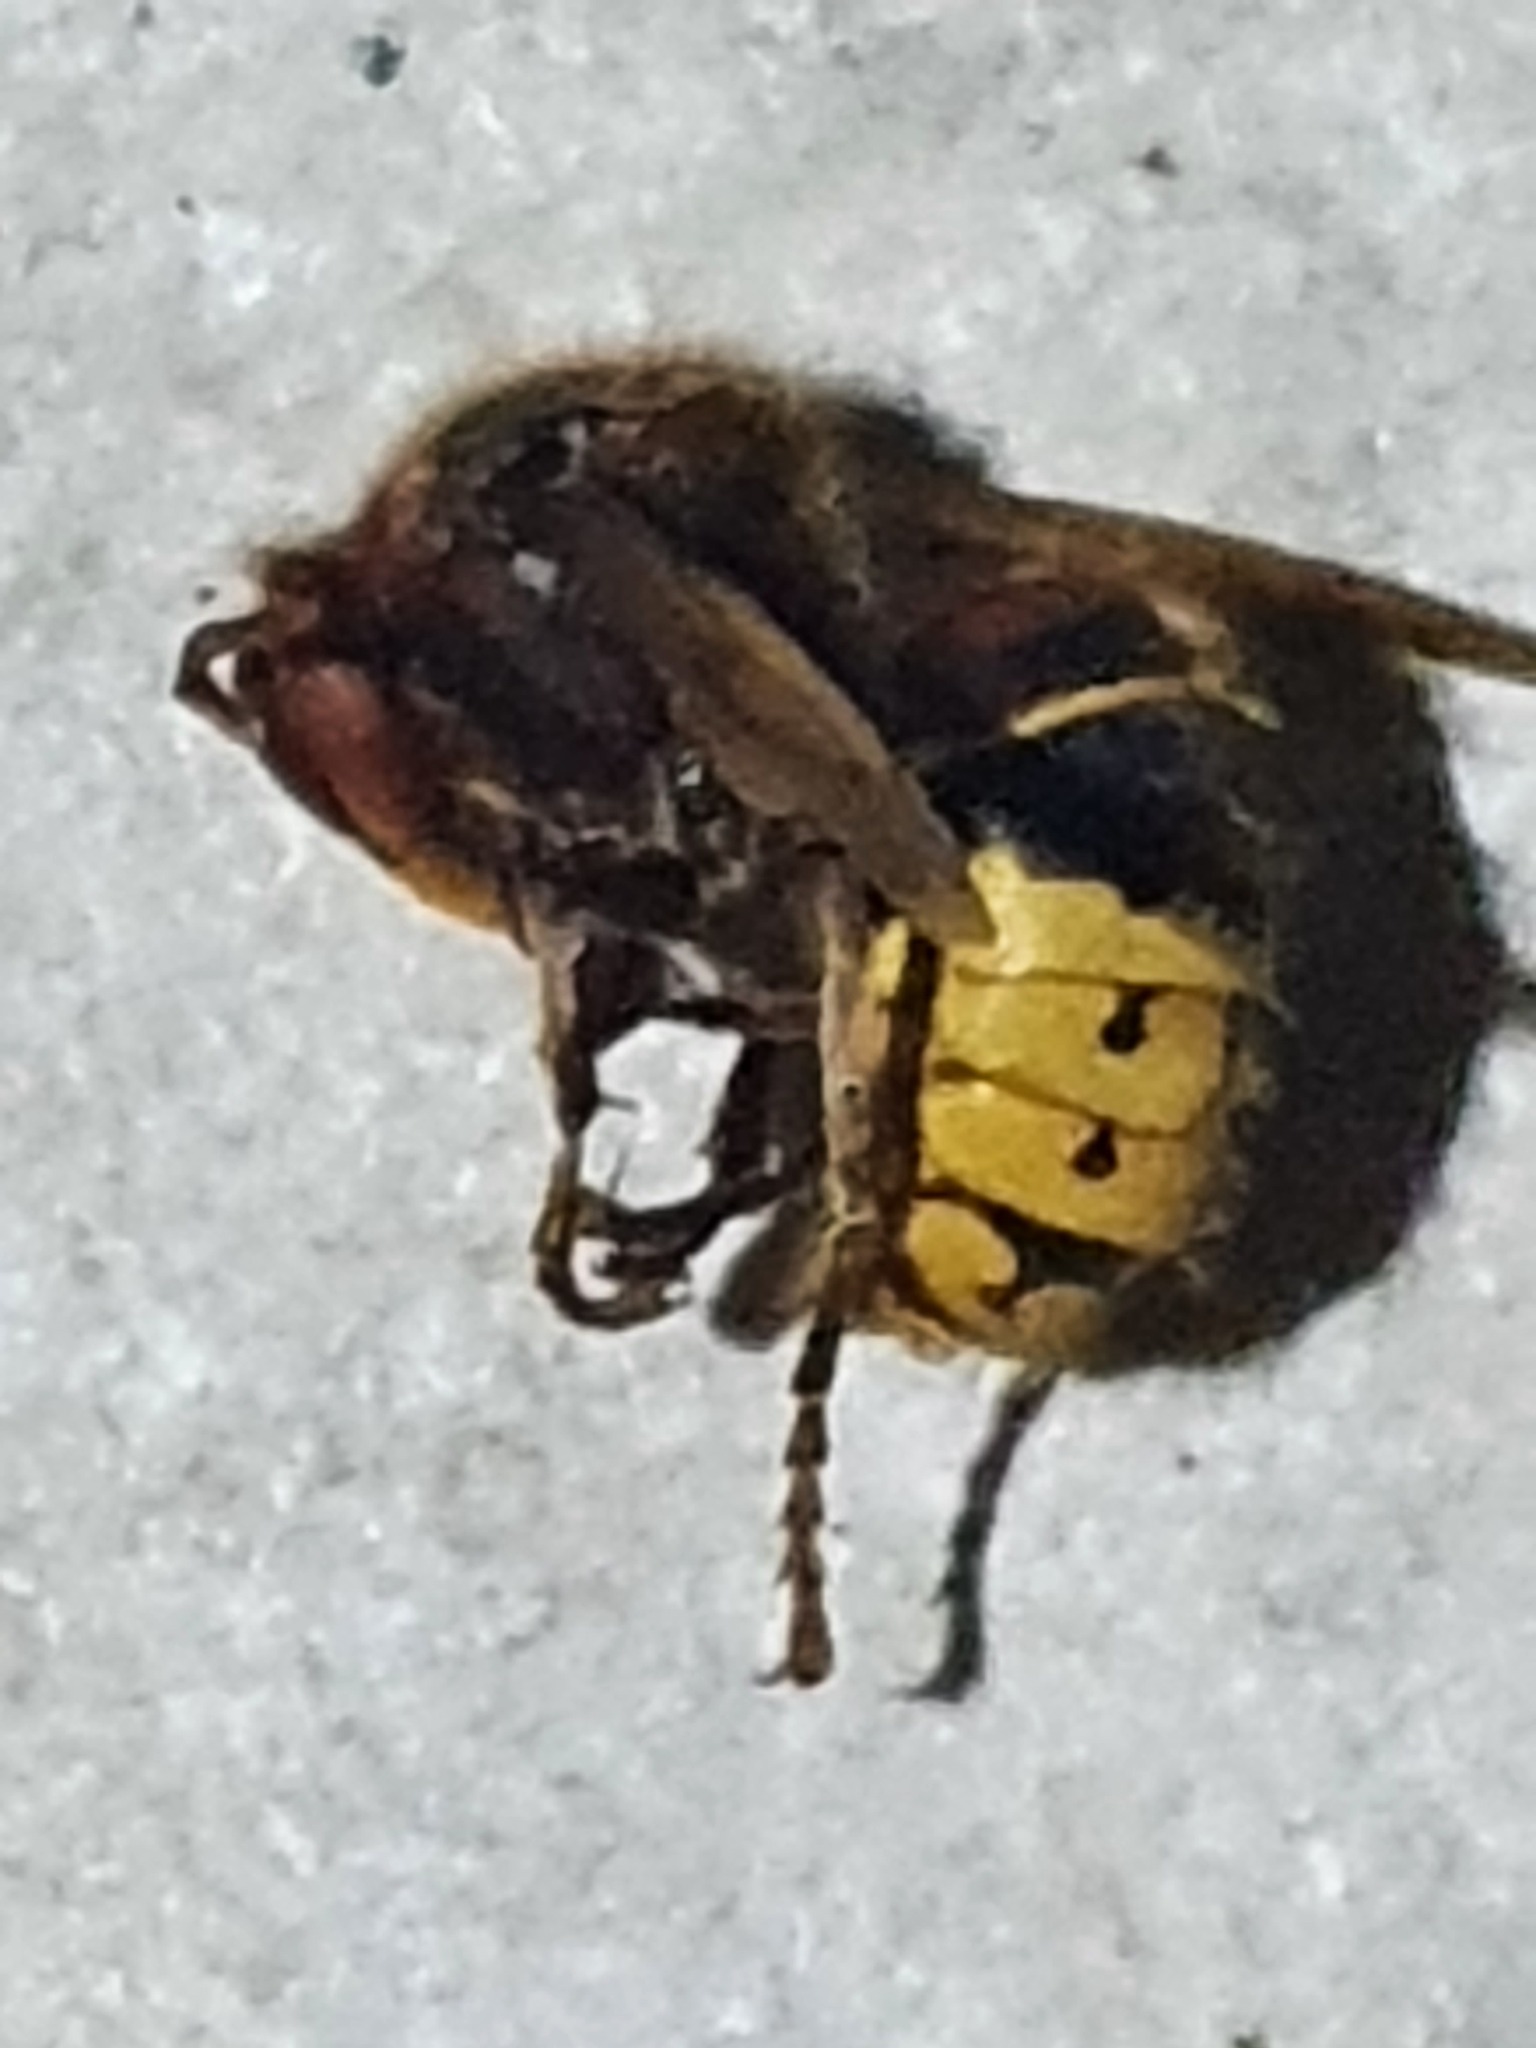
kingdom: Animalia
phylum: Arthropoda
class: Insecta
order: Hymenoptera
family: Vespidae
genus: Vespa
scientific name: Vespa crabro
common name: Hornet
